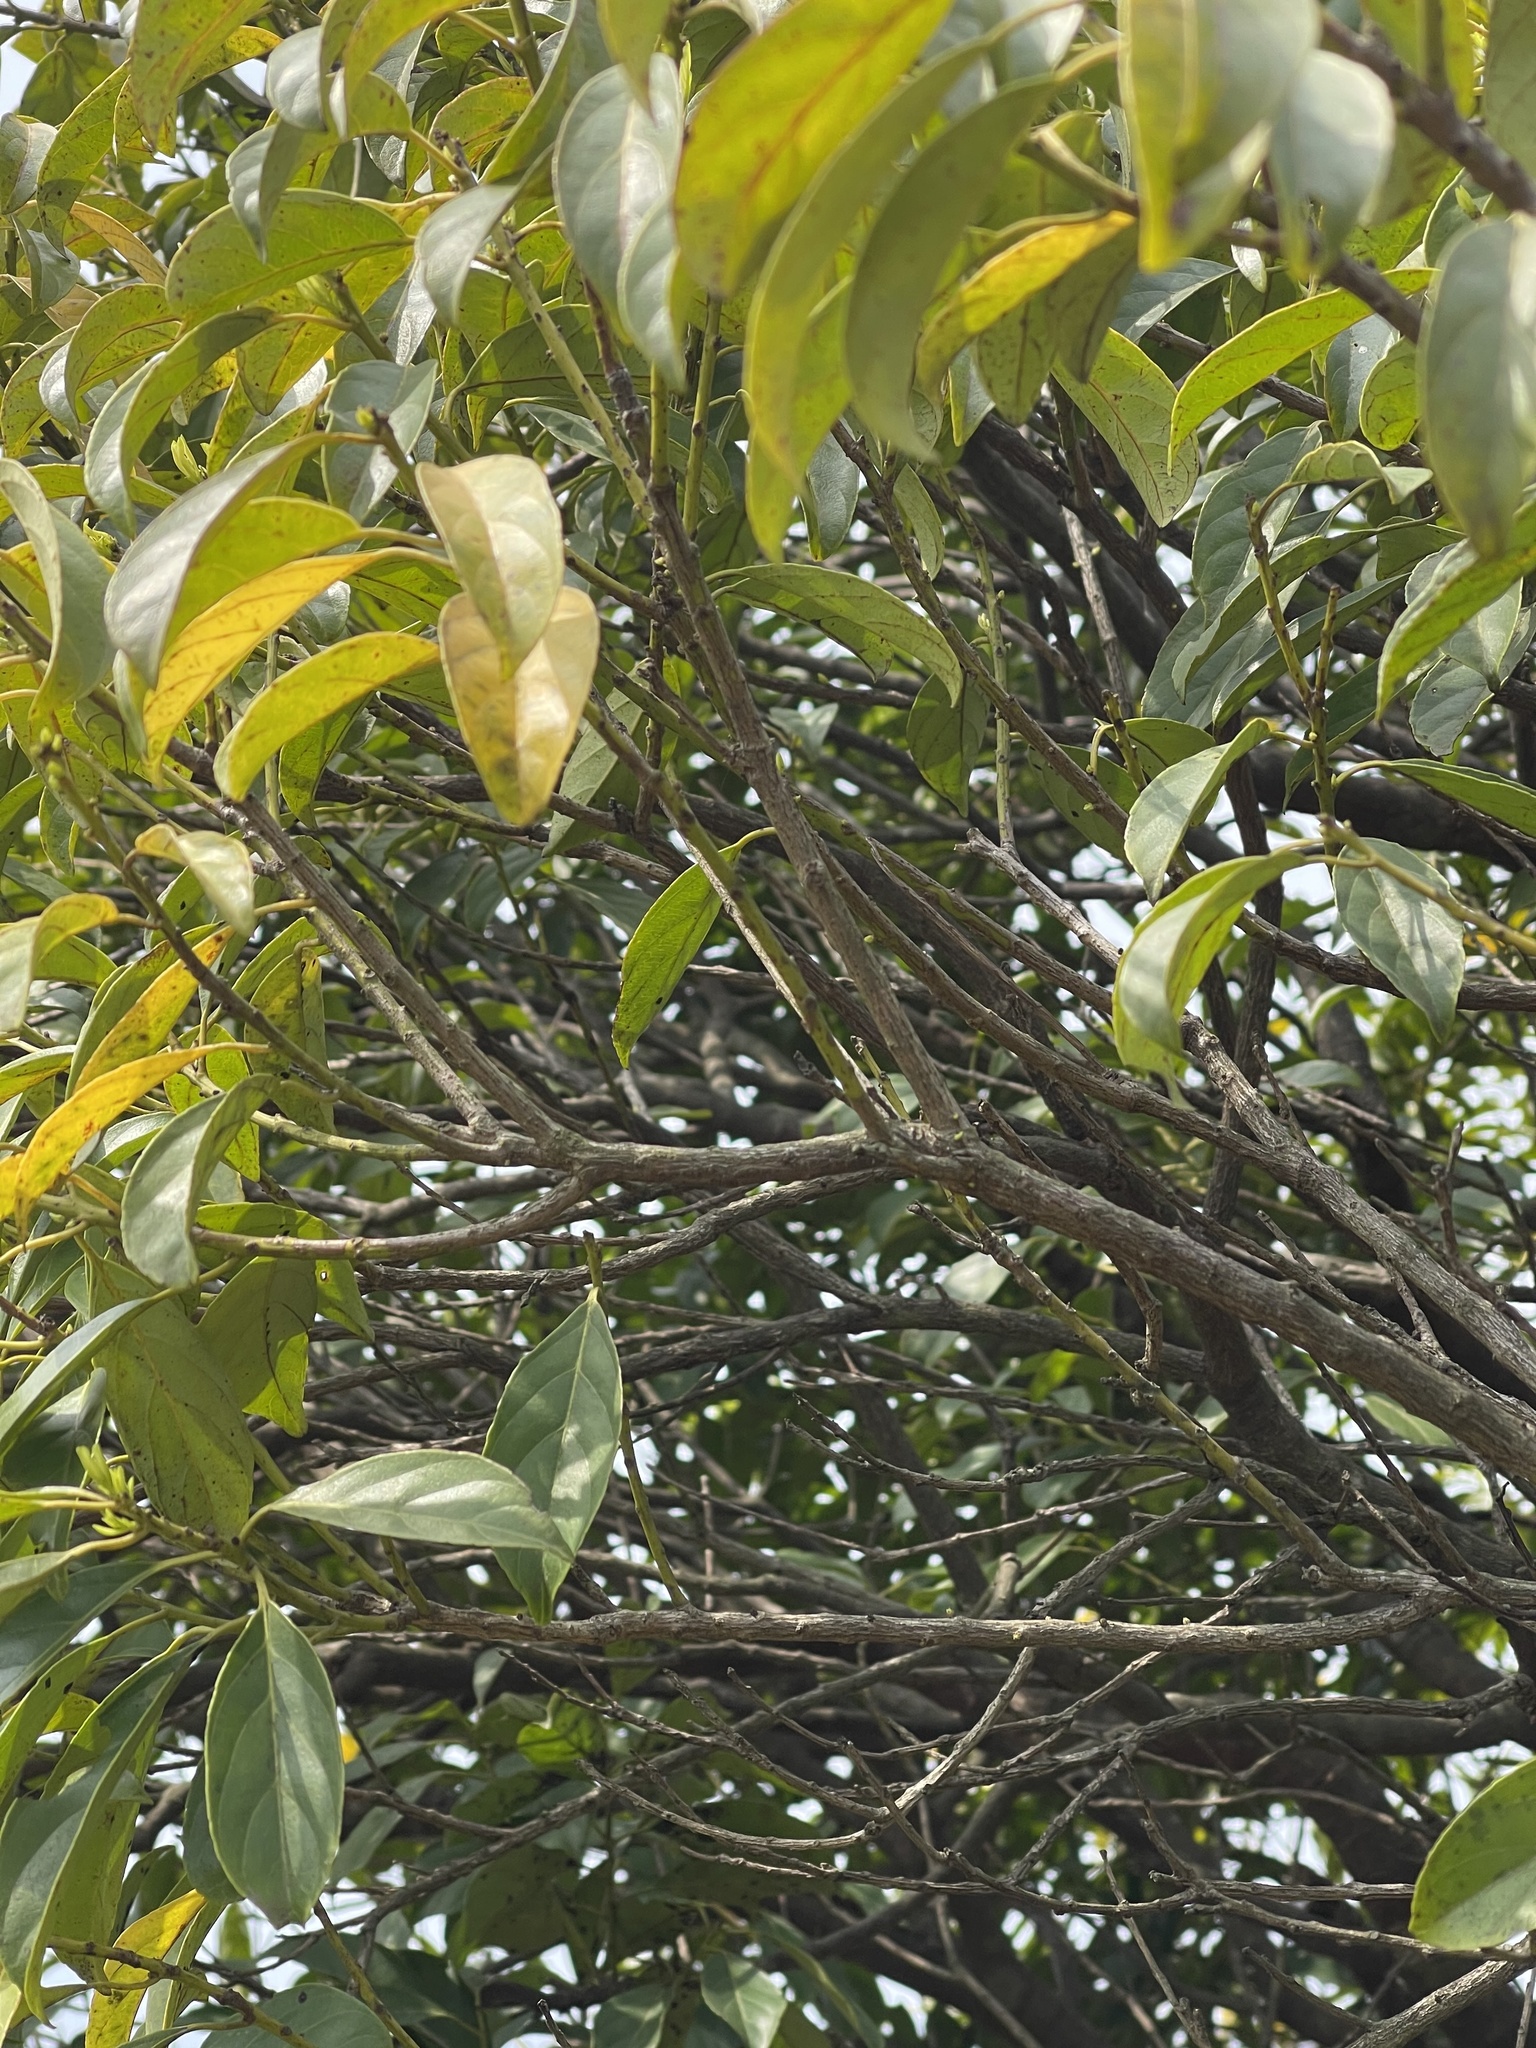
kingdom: Plantae
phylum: Tracheophyta
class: Magnoliopsida
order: Saxifragales
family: Iteaceae
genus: Itea
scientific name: Itea chinensis
